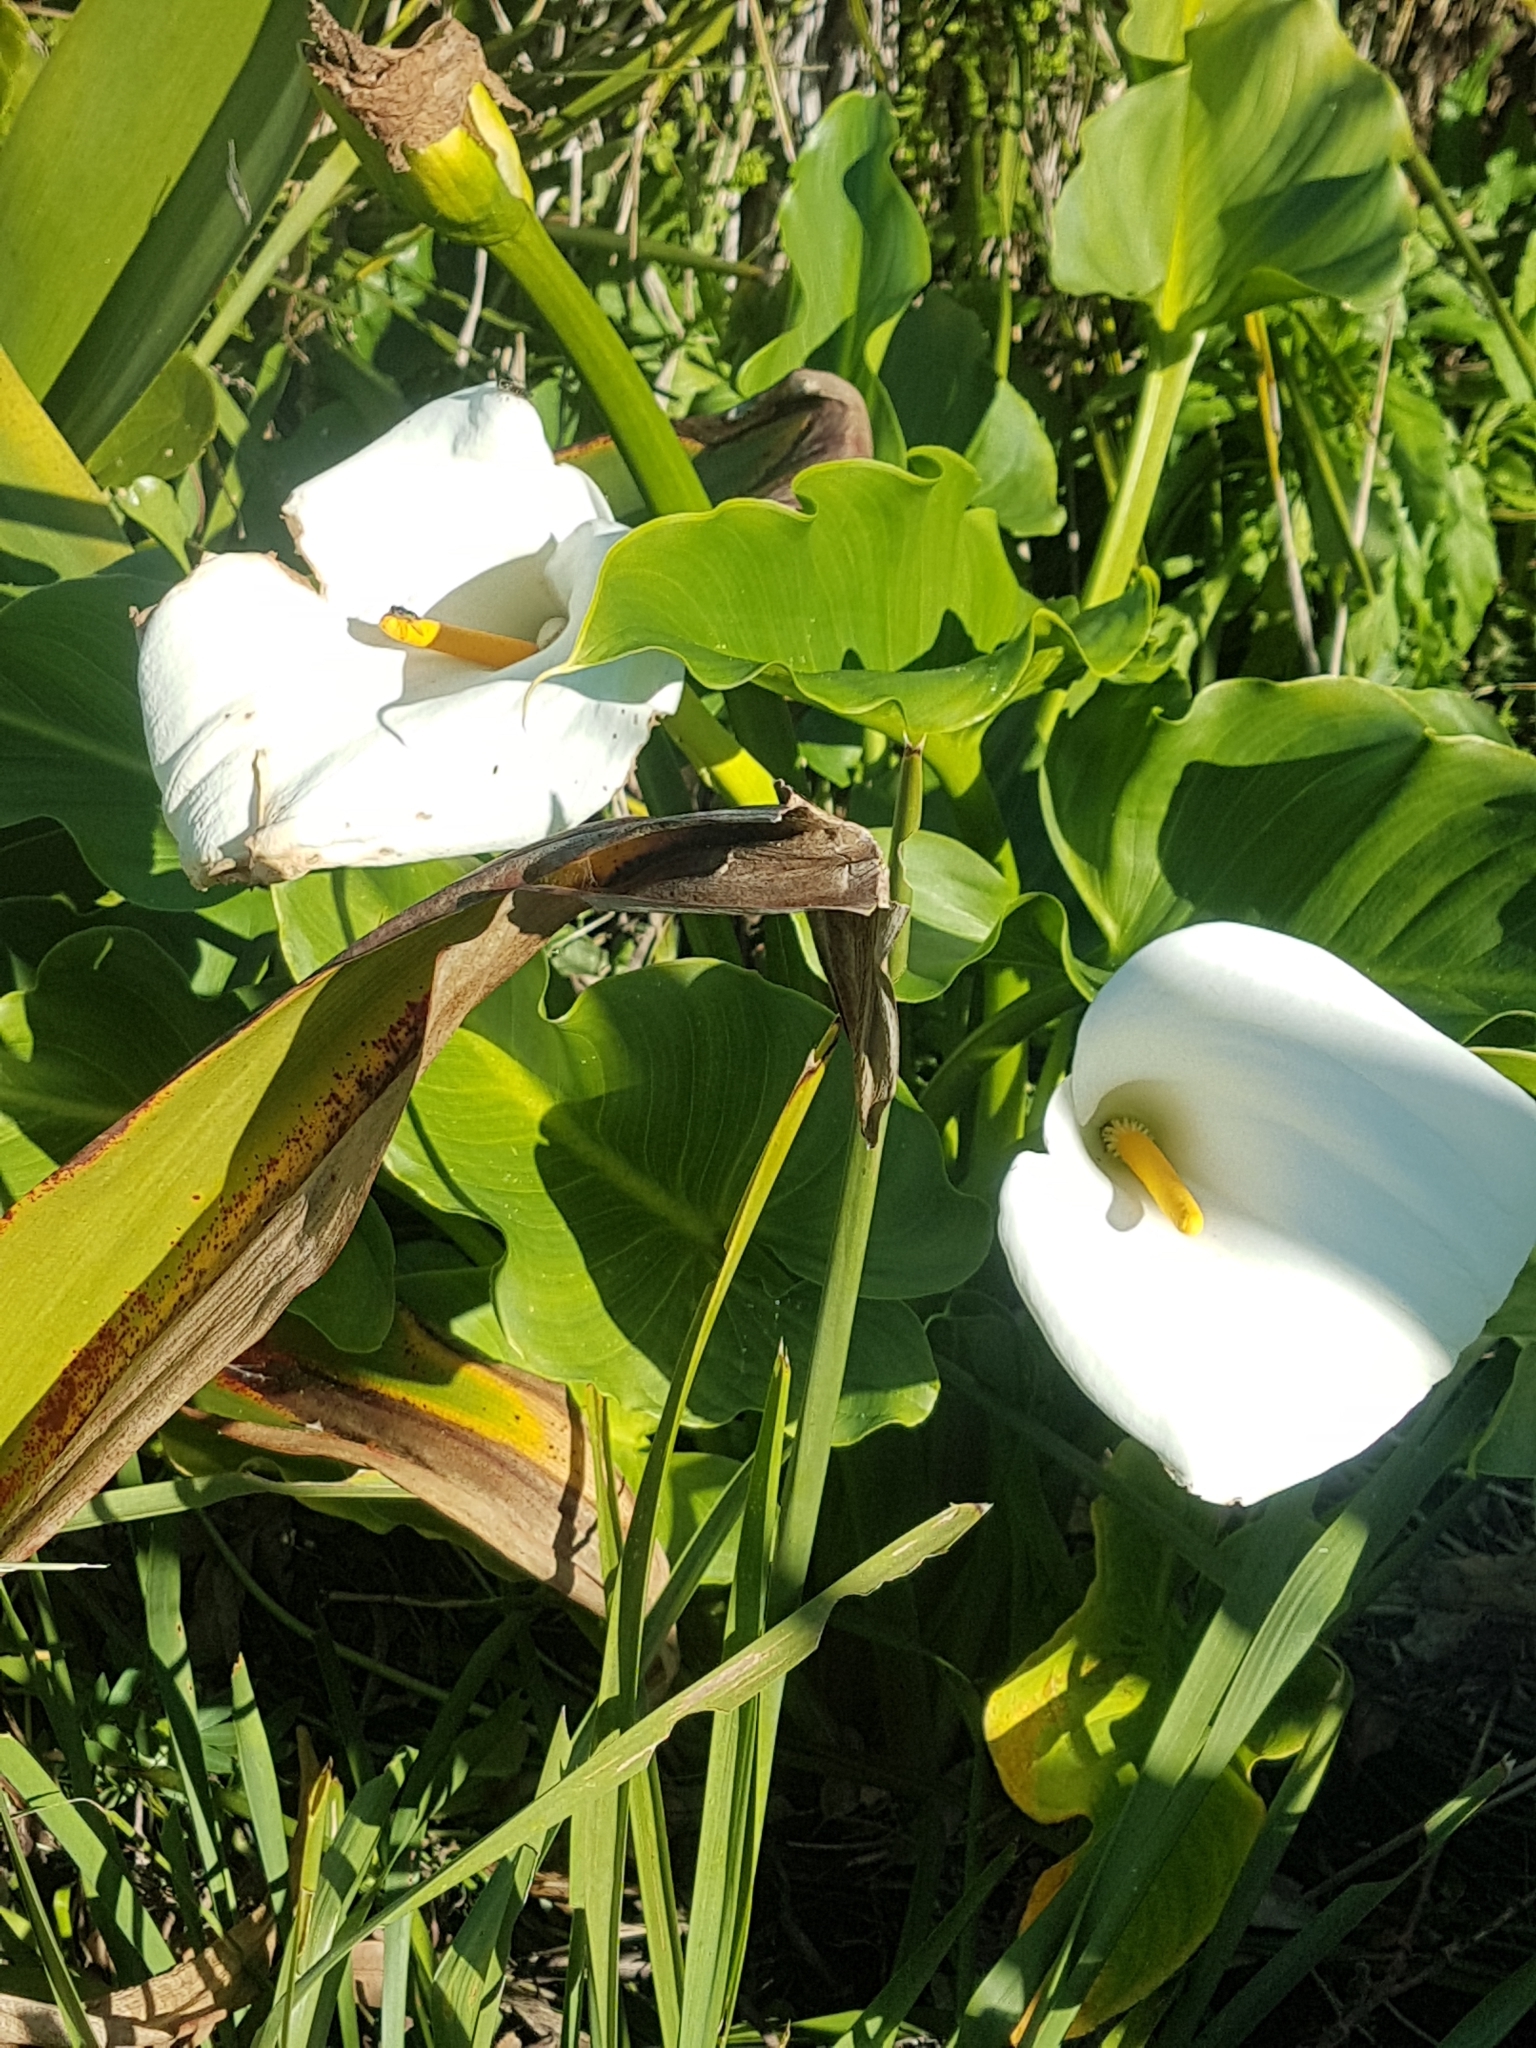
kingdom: Plantae
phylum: Tracheophyta
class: Liliopsida
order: Alismatales
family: Araceae
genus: Zantedeschia
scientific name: Zantedeschia aethiopica
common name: Altar-lily
